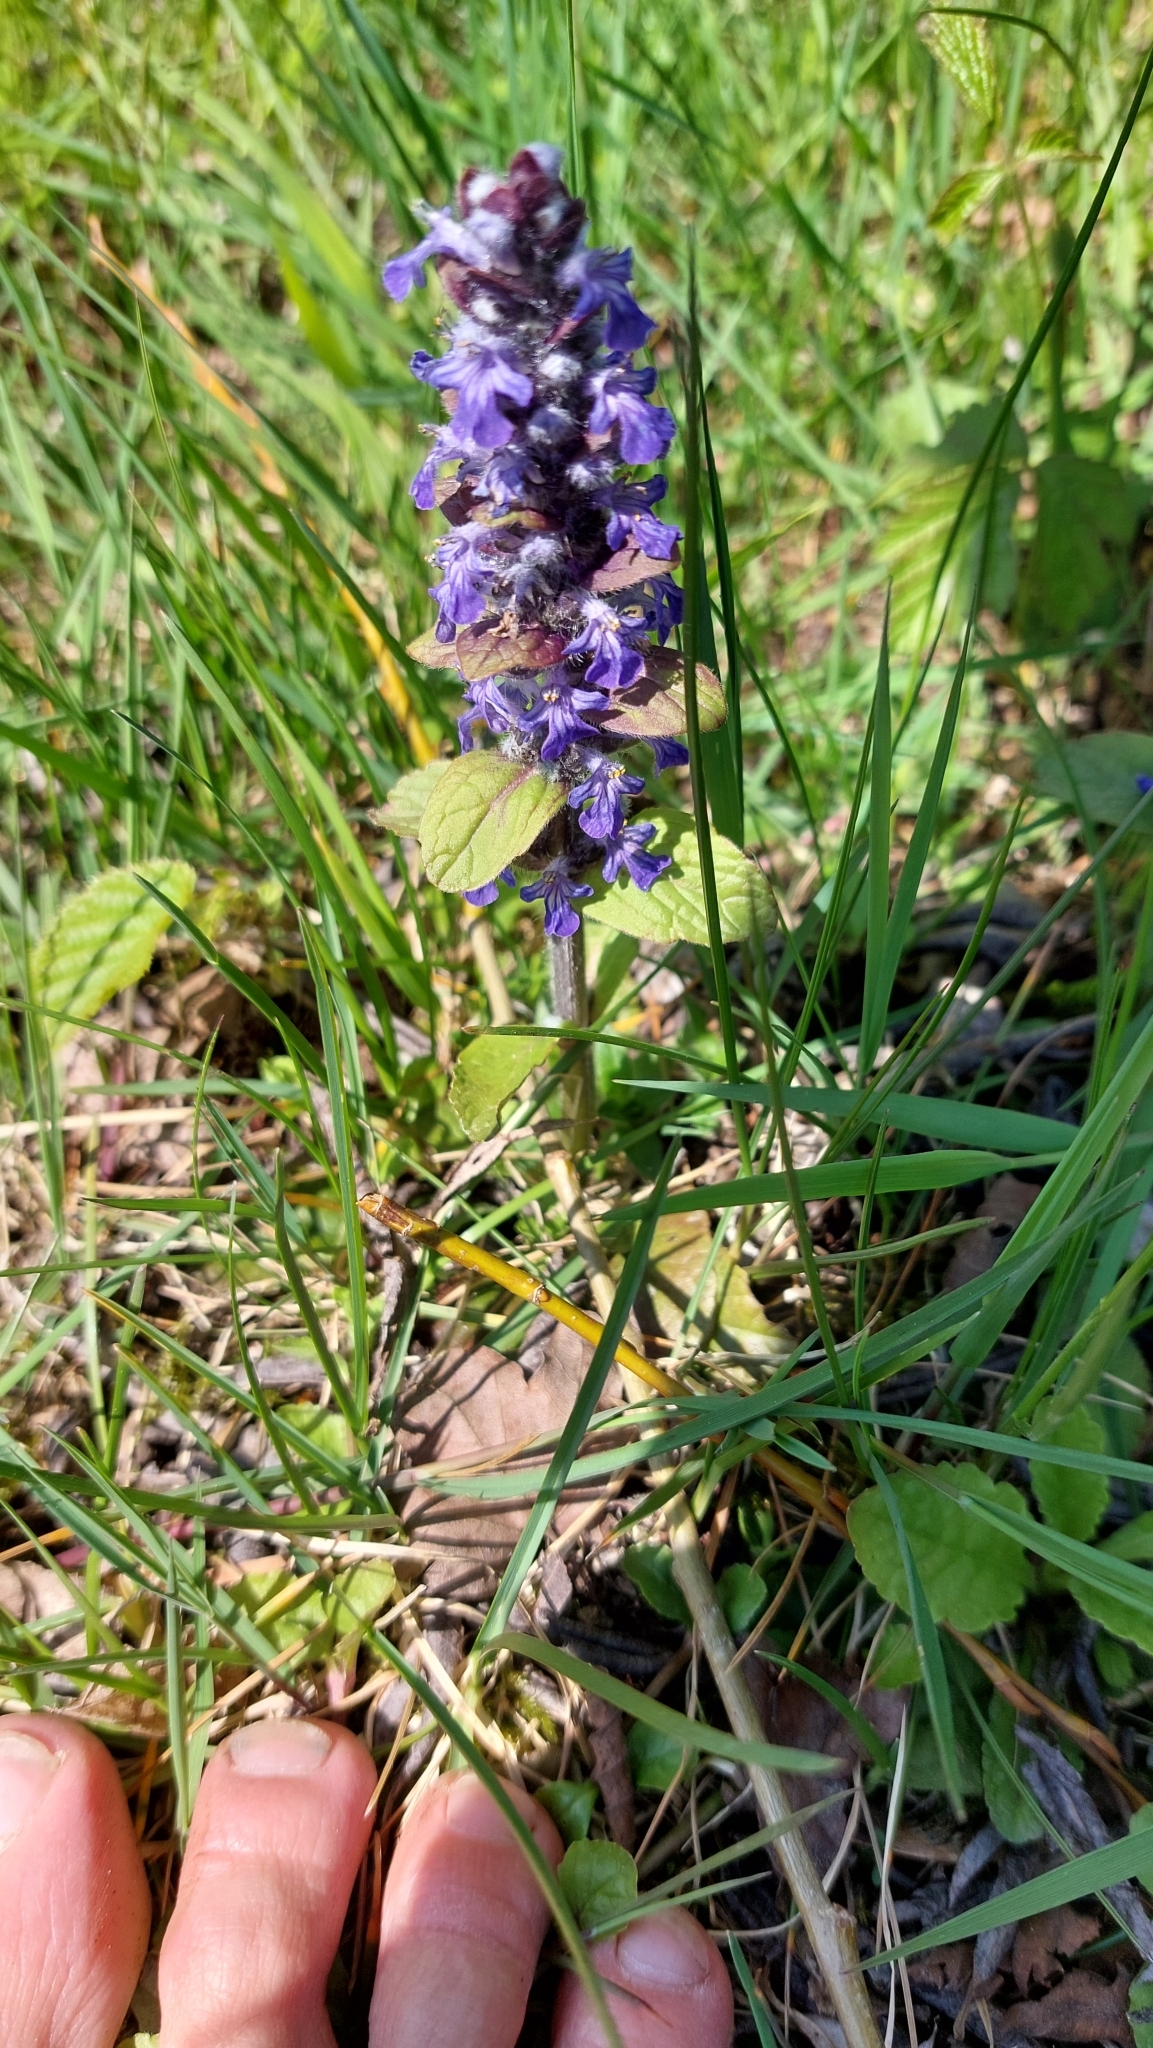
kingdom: Plantae
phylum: Tracheophyta
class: Magnoliopsida
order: Lamiales
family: Lamiaceae
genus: Ajuga
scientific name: Ajuga reptans
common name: Bugle
